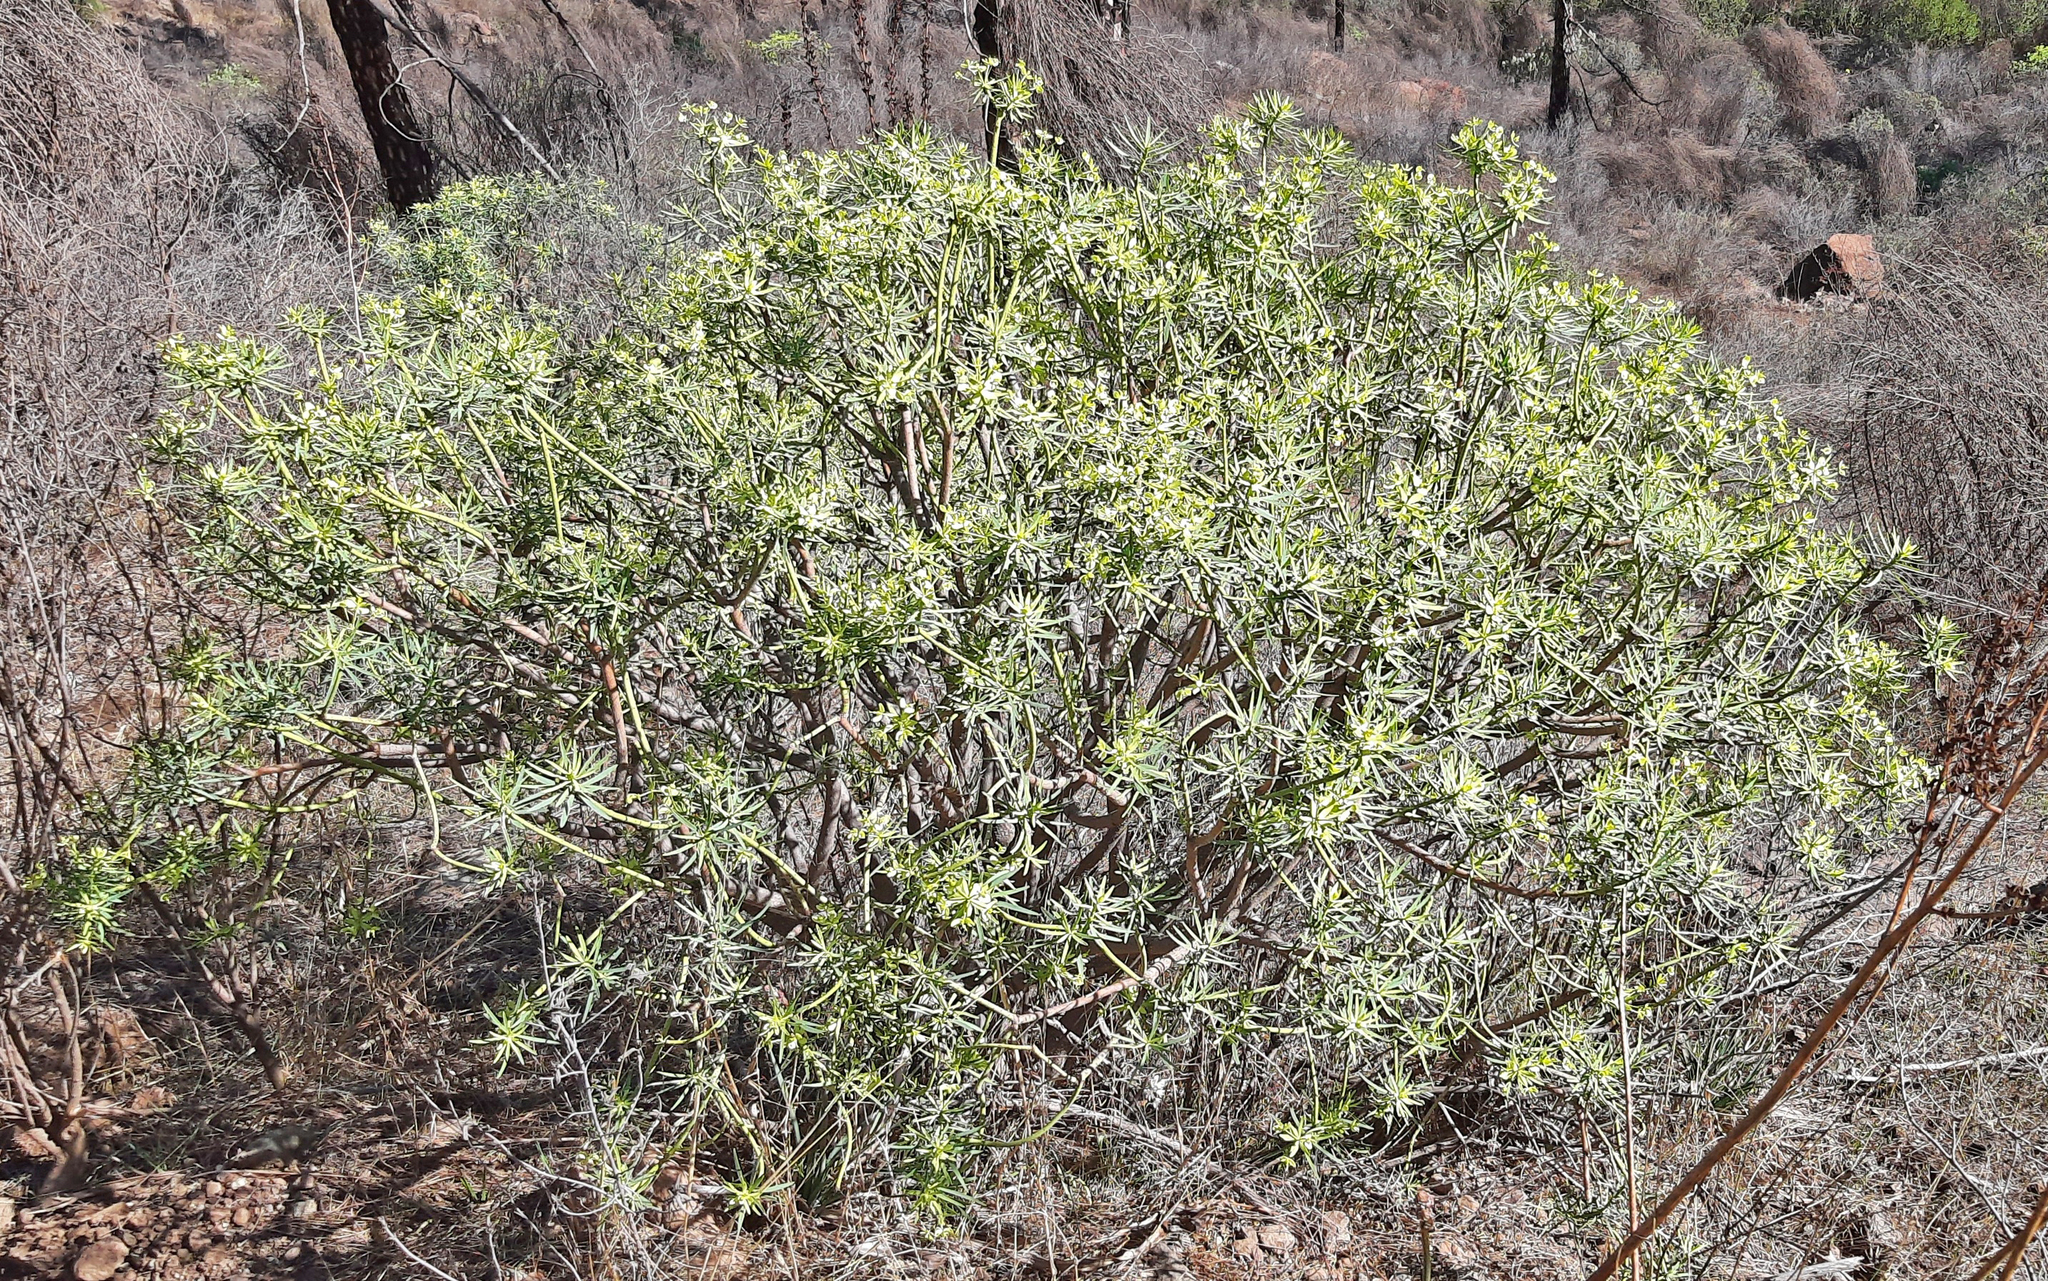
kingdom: Plantae
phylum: Tracheophyta
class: Magnoliopsida
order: Malpighiales
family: Euphorbiaceae
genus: Euphorbia
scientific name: Euphorbia regis-jubae
